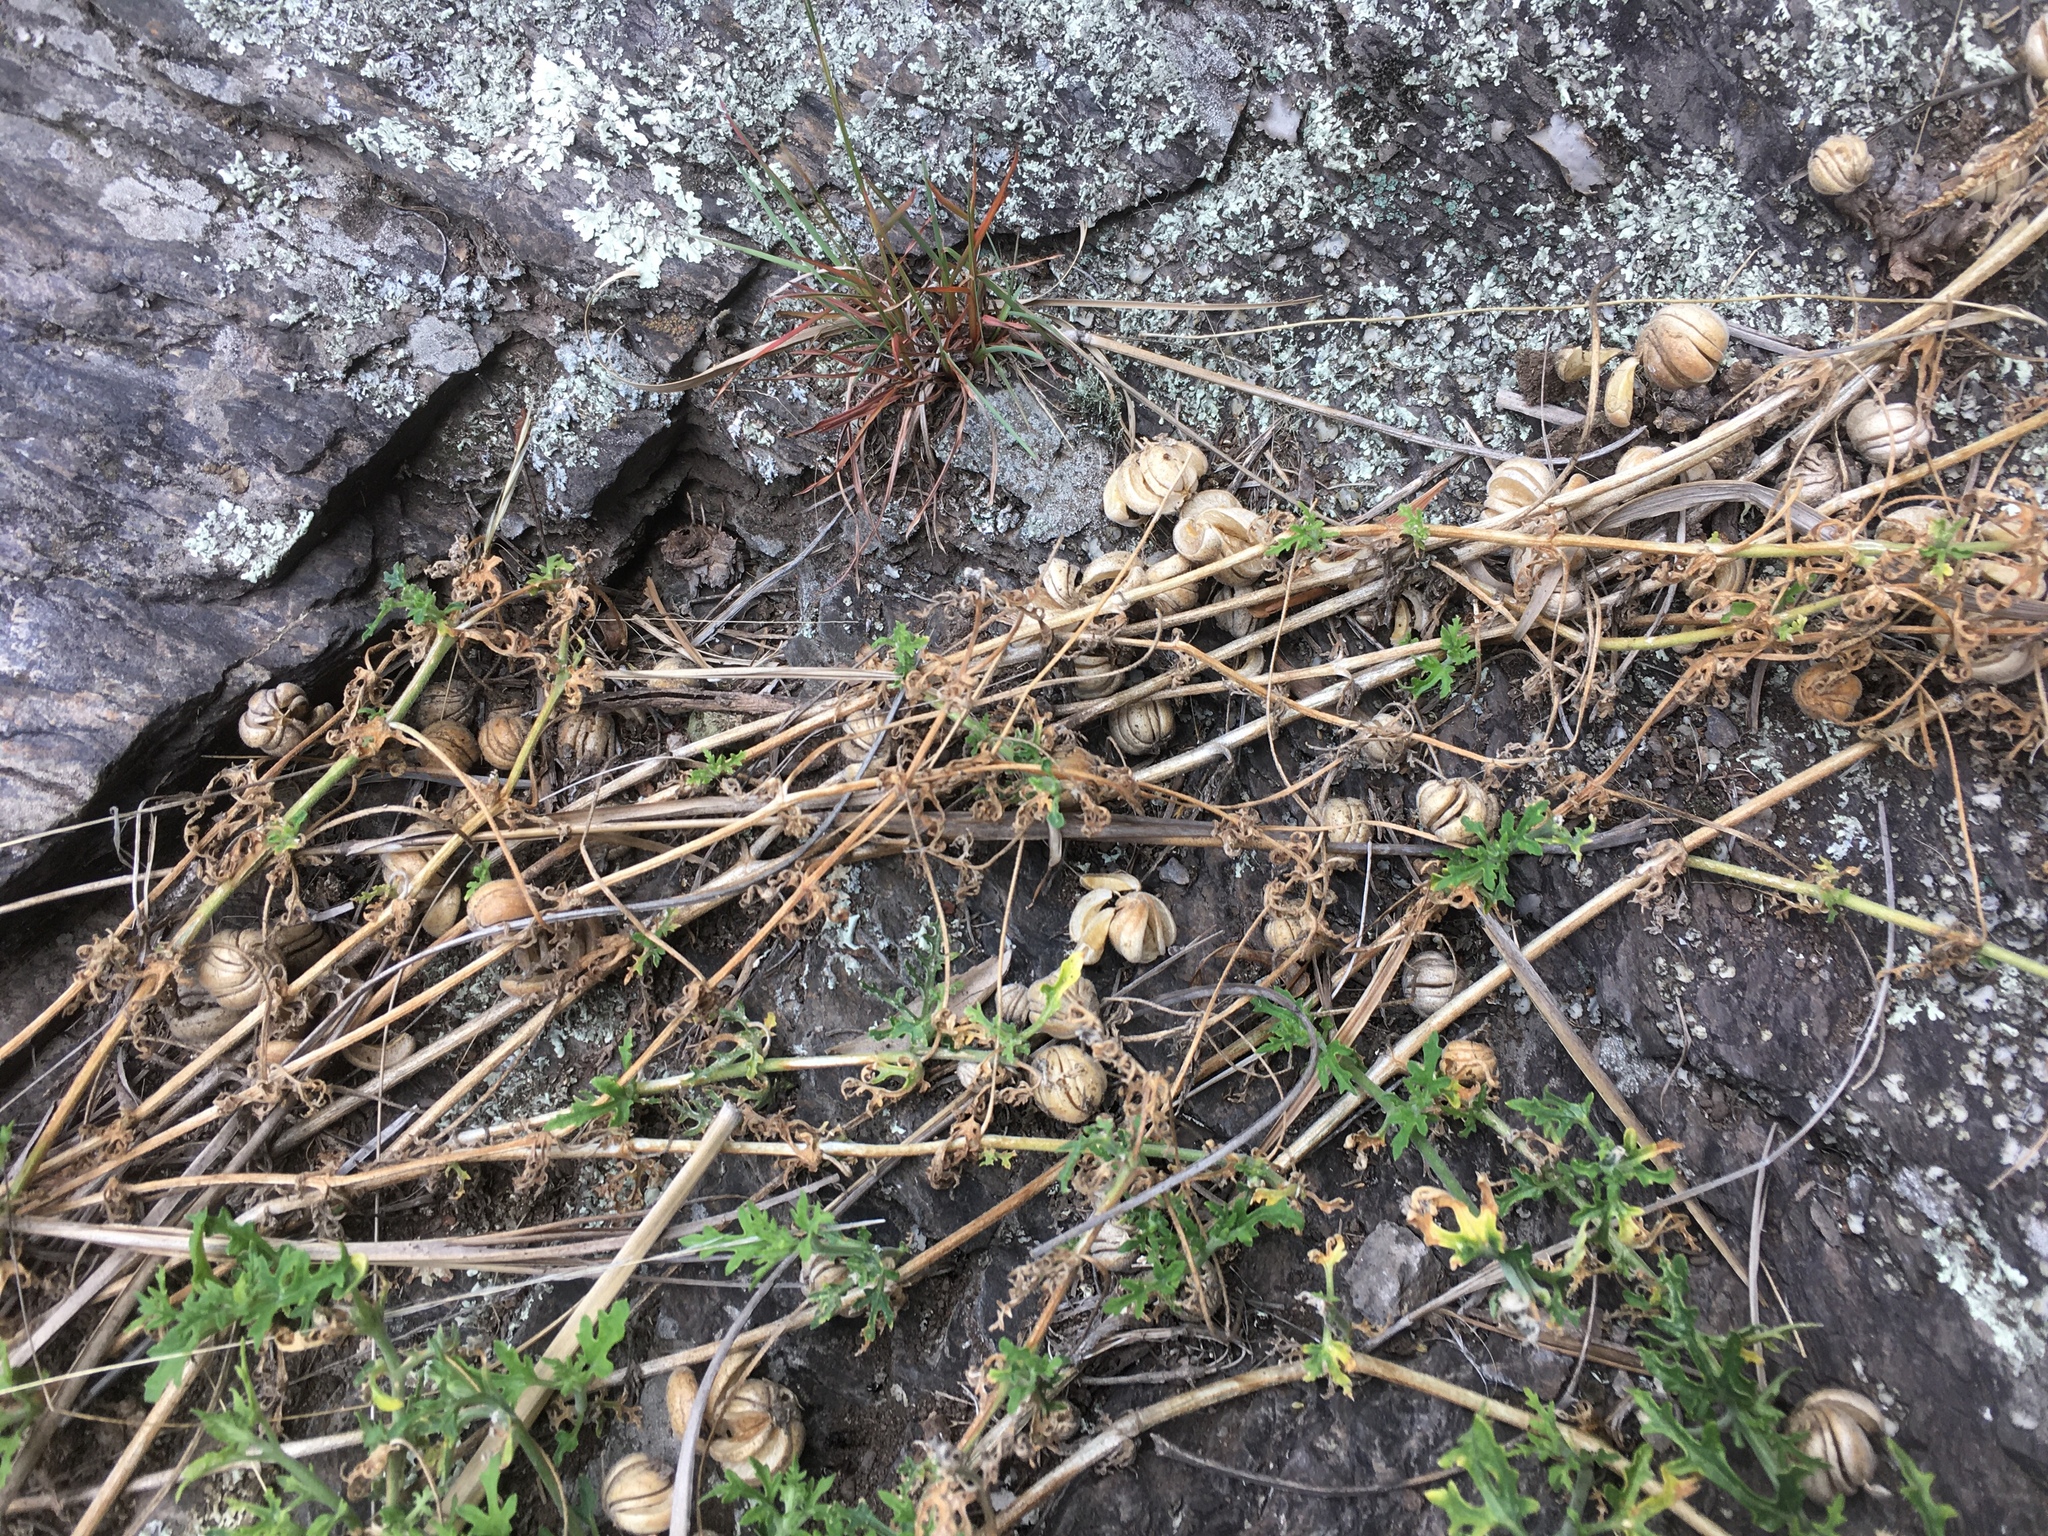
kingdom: Plantae
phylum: Tracheophyta
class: Magnoliopsida
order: Cornales
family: Loasaceae
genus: Blumenbachia
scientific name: Blumenbachia insignis
